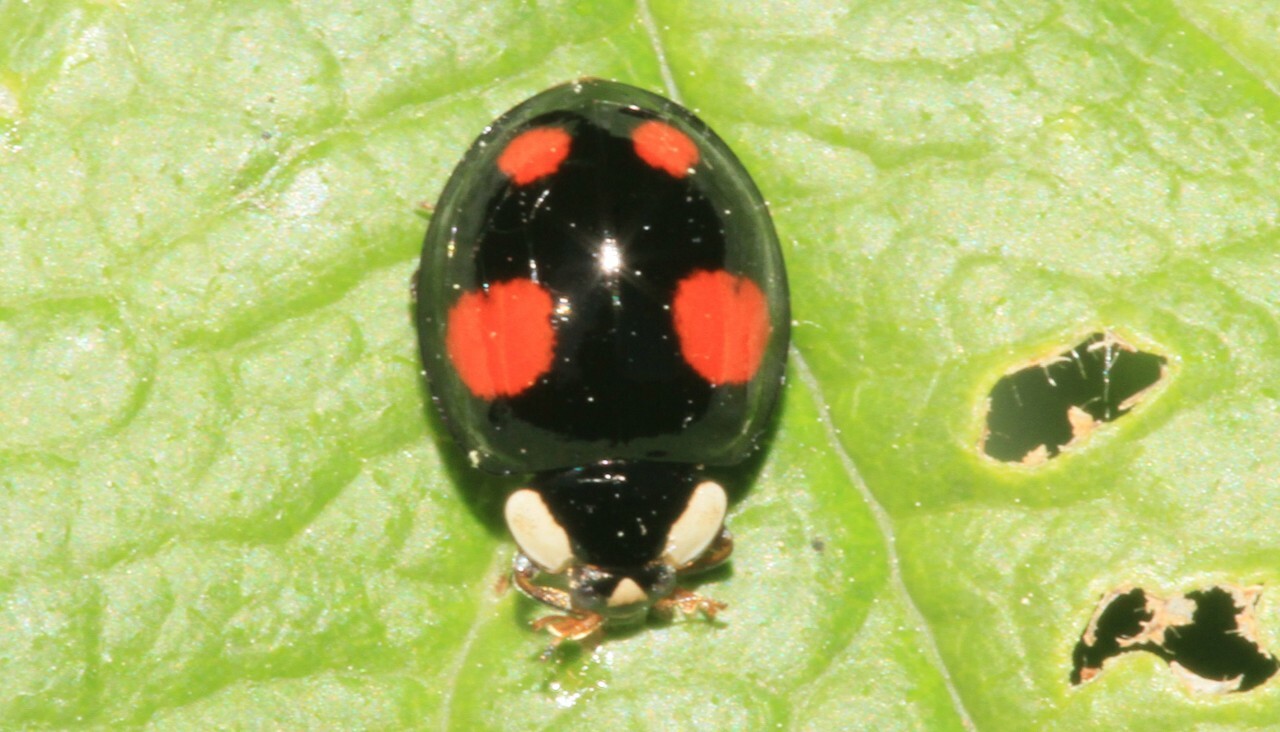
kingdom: Animalia
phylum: Arthropoda
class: Insecta
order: Coleoptera
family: Coccinellidae
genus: Harmonia
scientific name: Harmonia axyridis
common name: Harlequin ladybird
